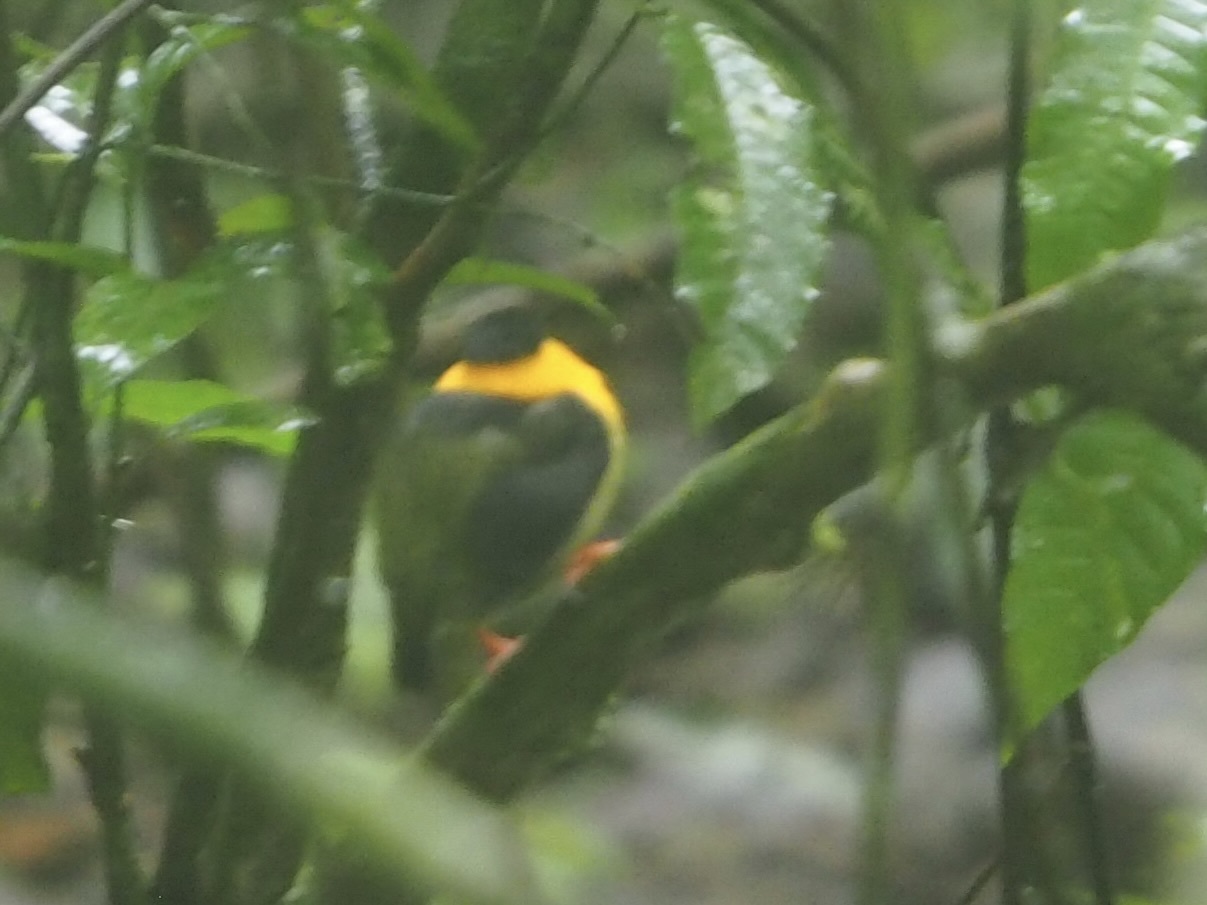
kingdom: Animalia
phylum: Chordata
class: Aves
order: Passeriformes
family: Pipridae
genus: Manacus
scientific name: Manacus vitellinus
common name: Golden-collared manakin
